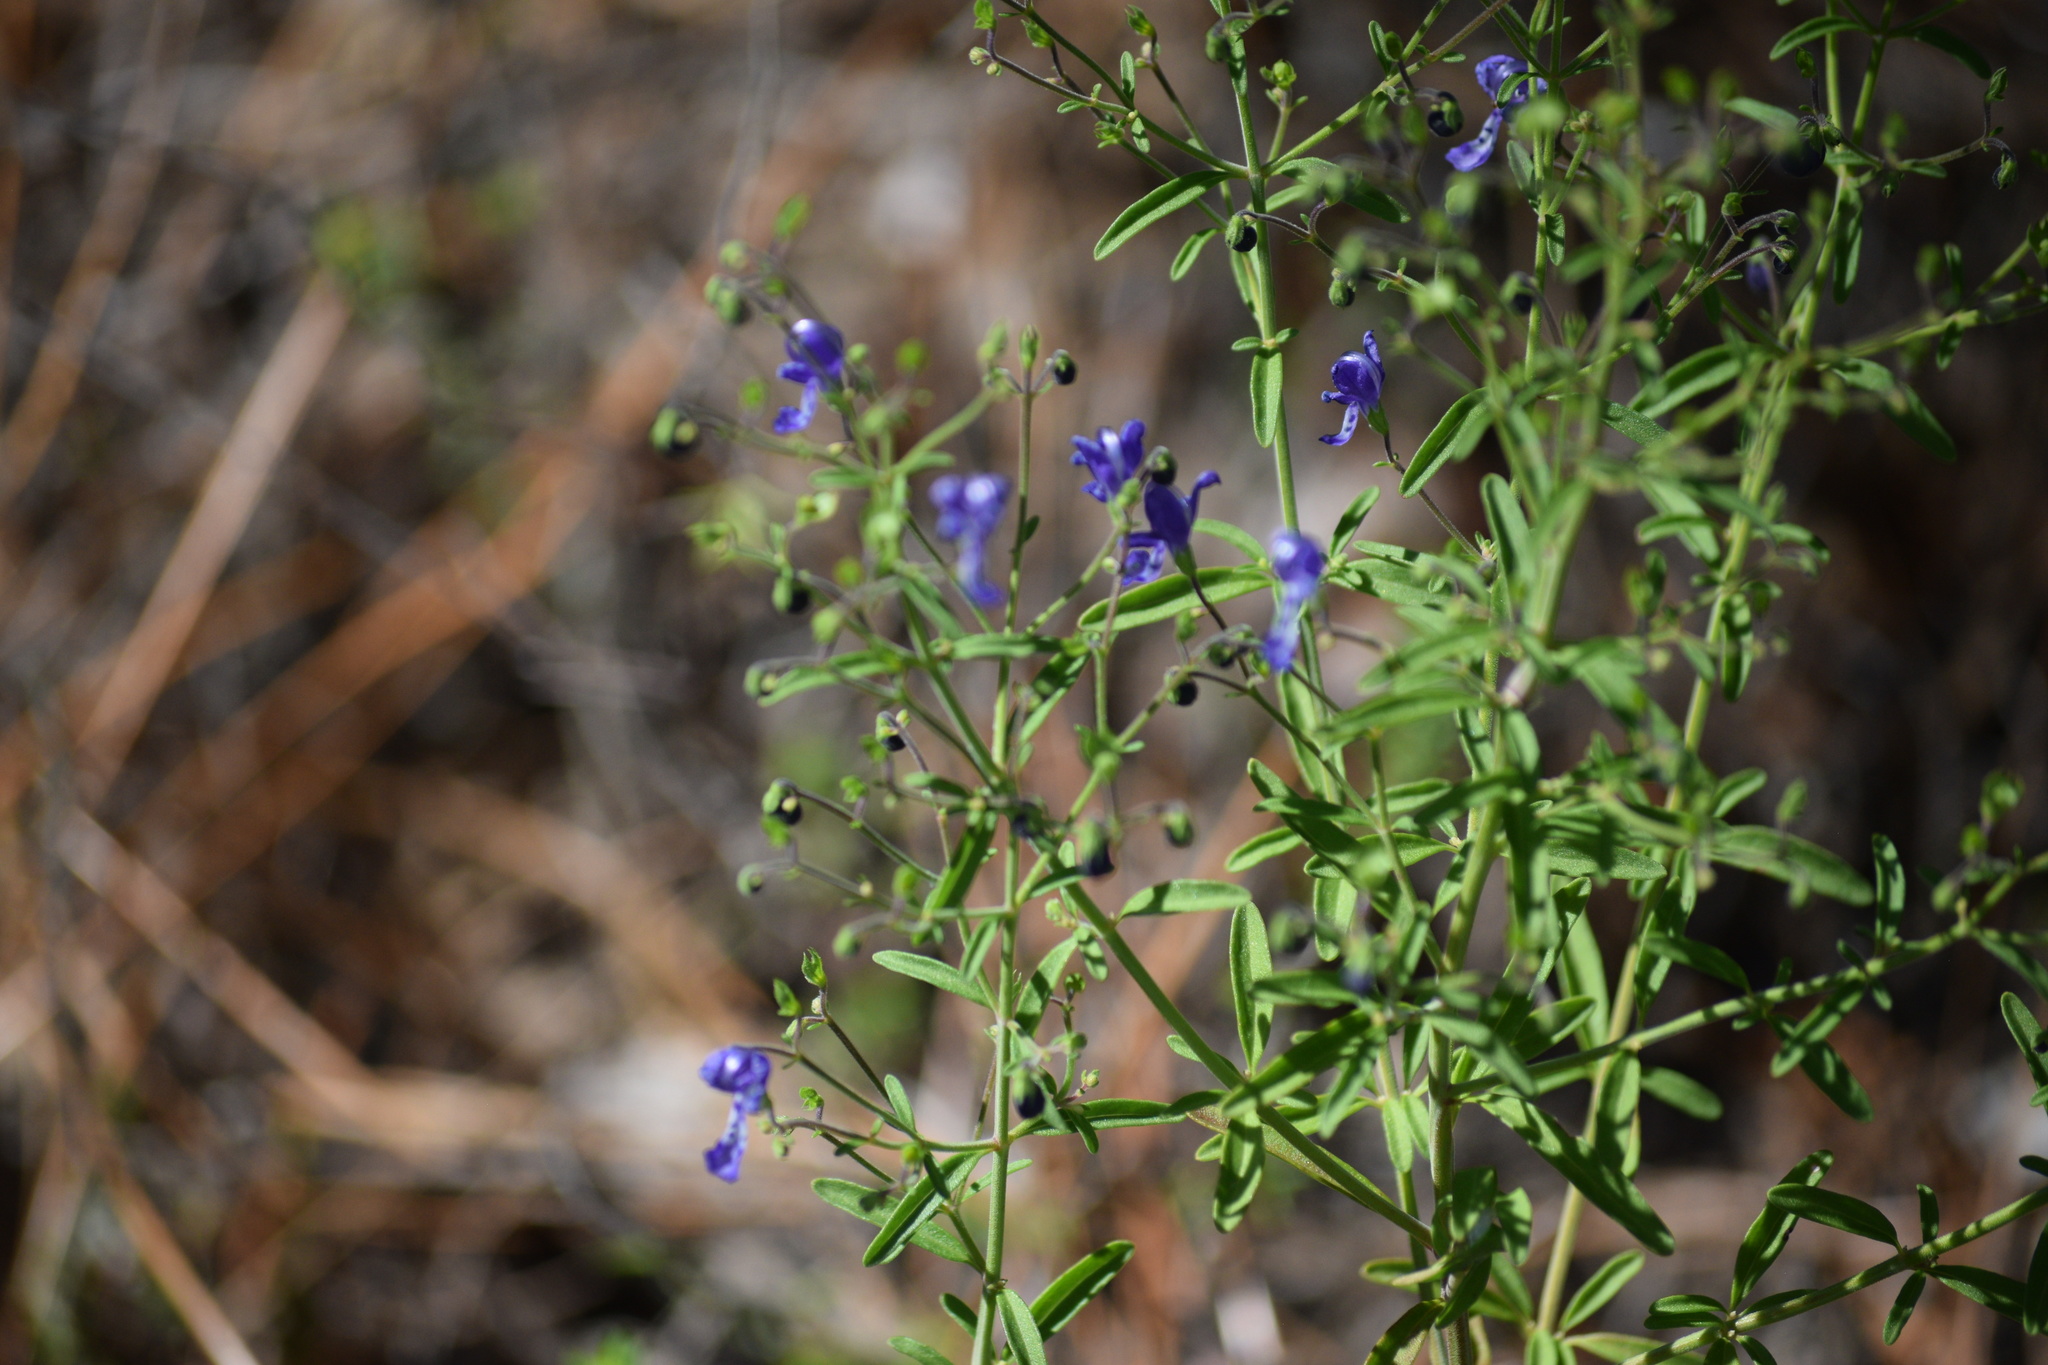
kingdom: Plantae
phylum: Tracheophyta
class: Magnoliopsida
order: Lamiales
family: Lamiaceae
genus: Trichostema
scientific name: Trichostema gracile
